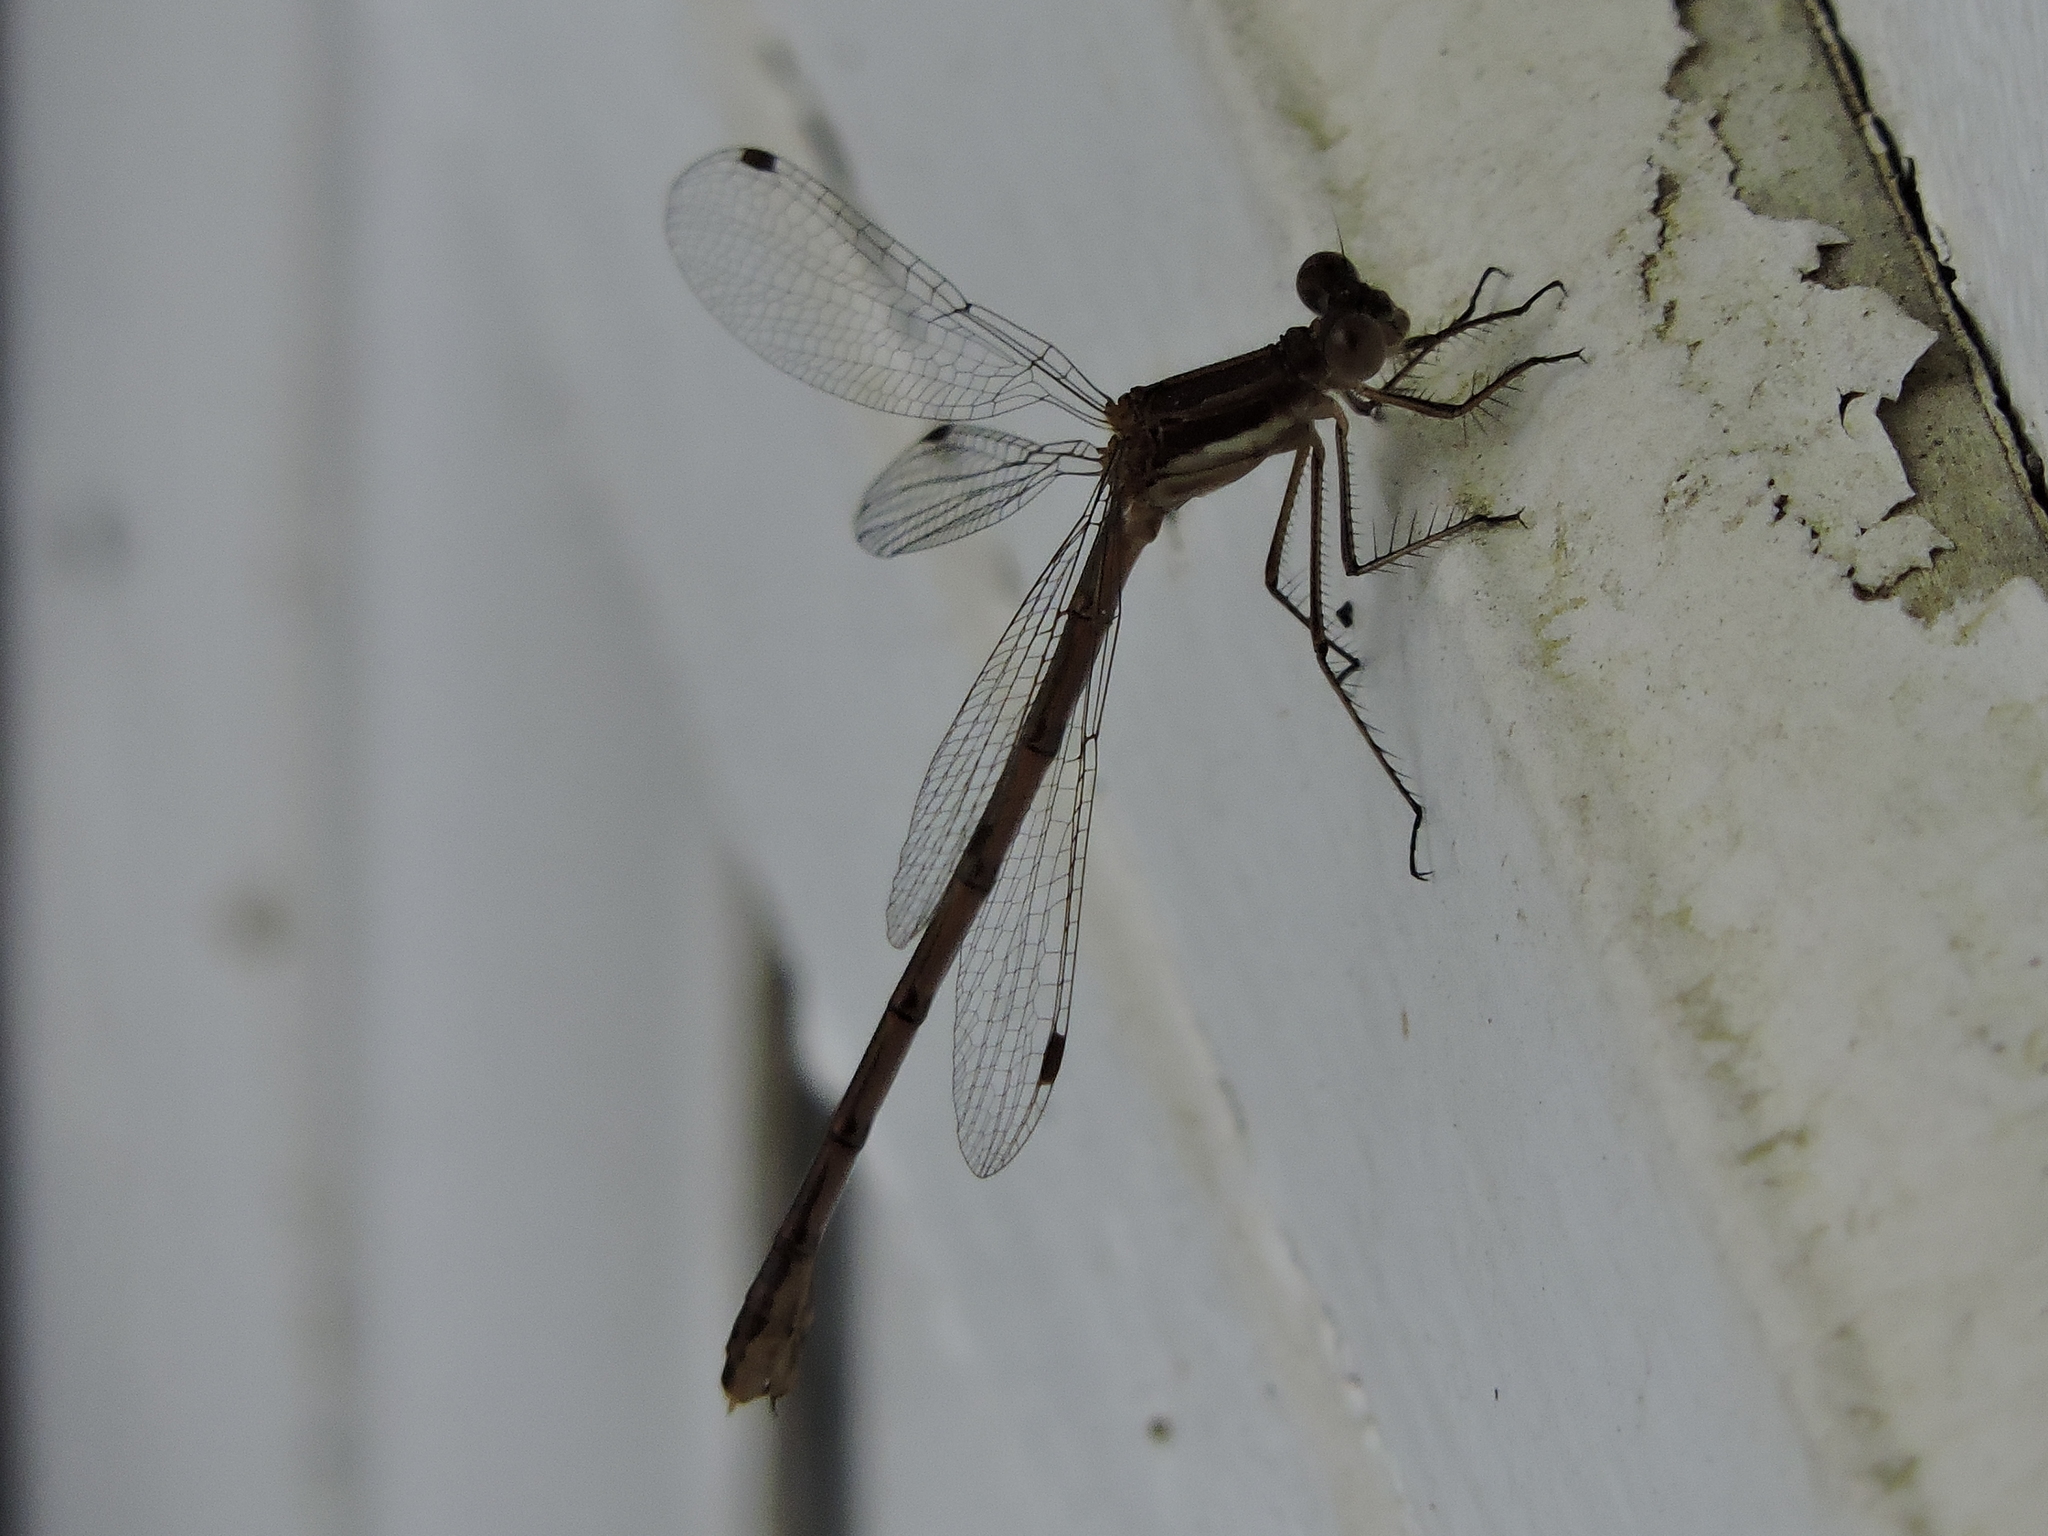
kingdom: Animalia
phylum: Arthropoda
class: Insecta
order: Odonata
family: Lestidae
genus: Lestes
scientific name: Lestes australis
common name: Southern spreadwing
